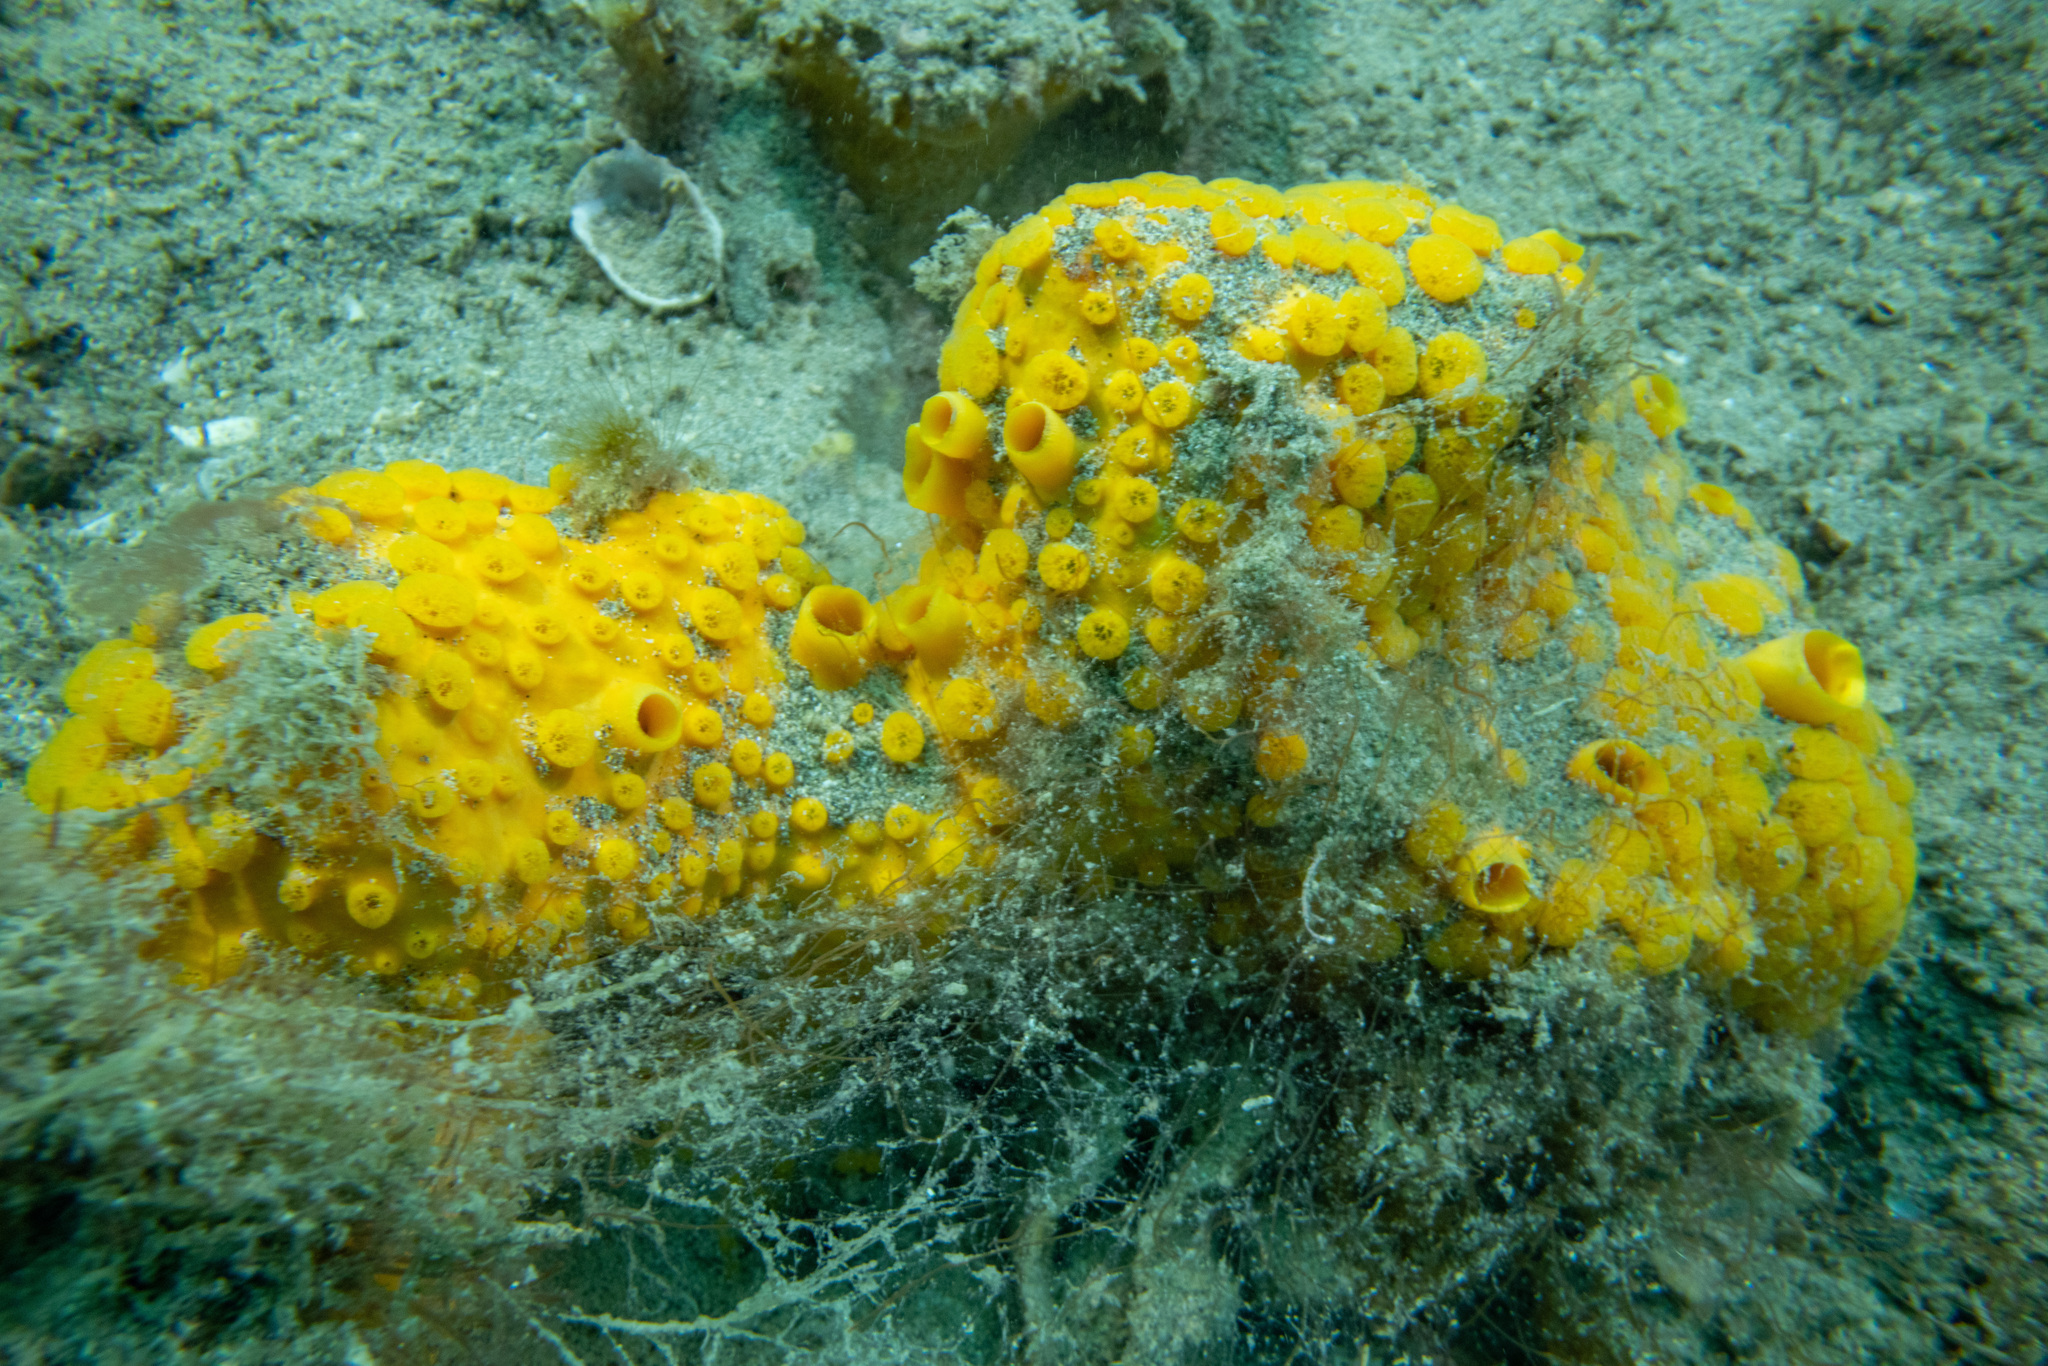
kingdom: Animalia
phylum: Porifera
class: Demospongiae
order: Clionaida
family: Clionaidae
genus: Cliona
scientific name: Cliona celata
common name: Boring sponge
